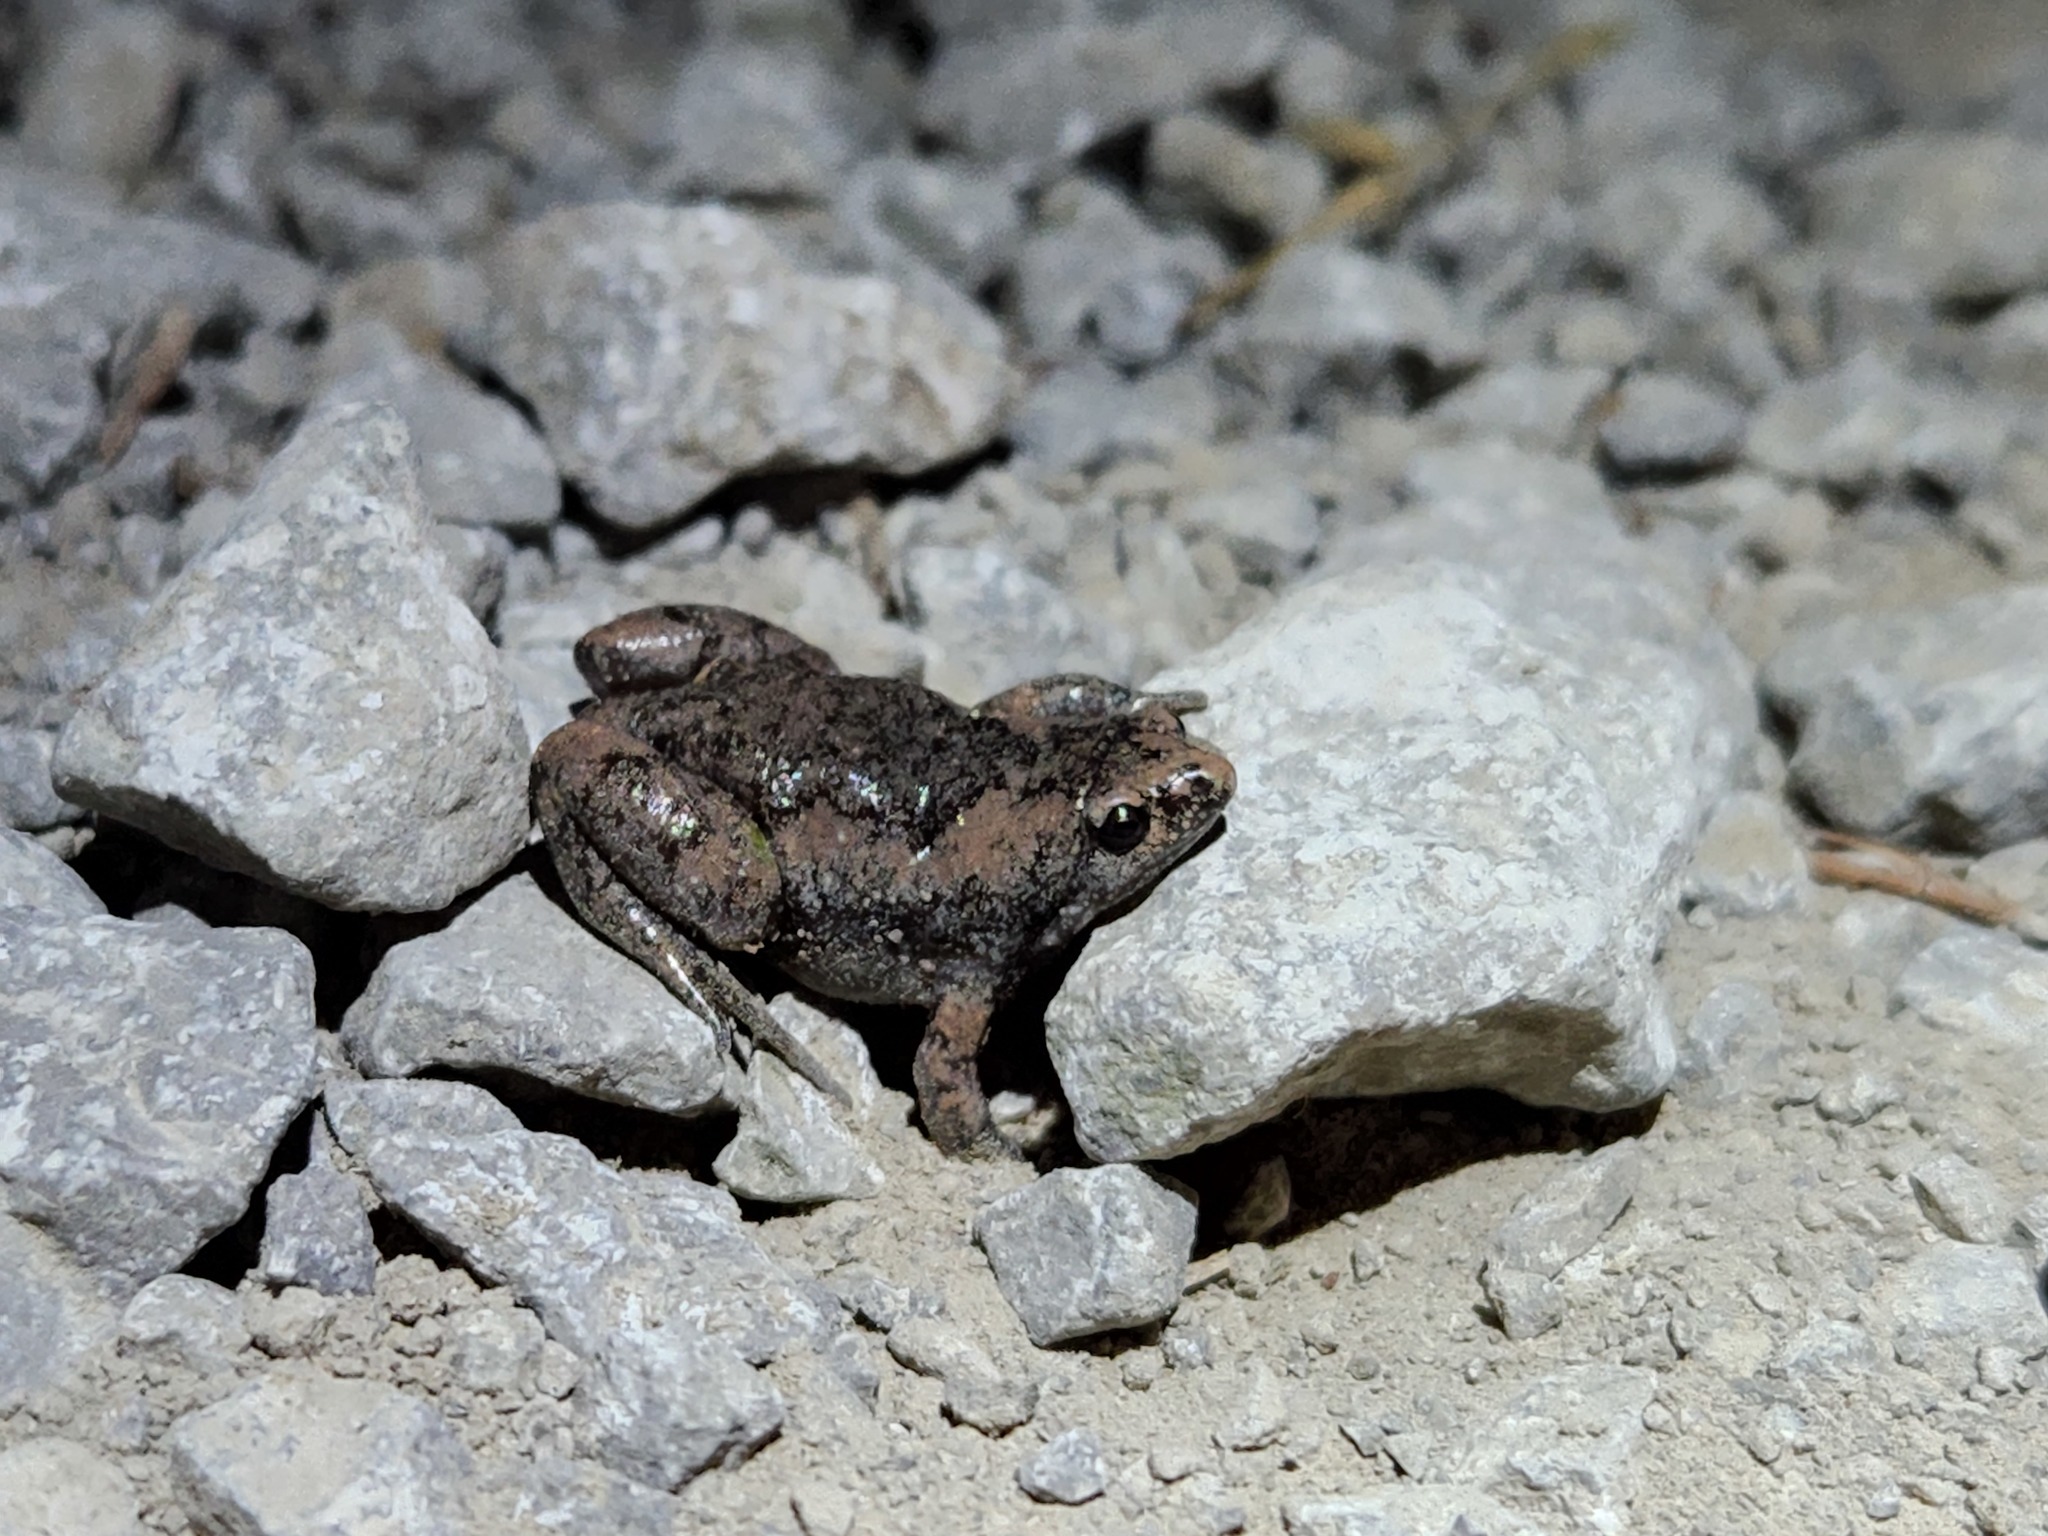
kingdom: Animalia
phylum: Chordata
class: Amphibia
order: Anura
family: Microhylidae
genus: Gastrophryne
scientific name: Gastrophryne carolinensis
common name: Eastern narrowmouth toad
